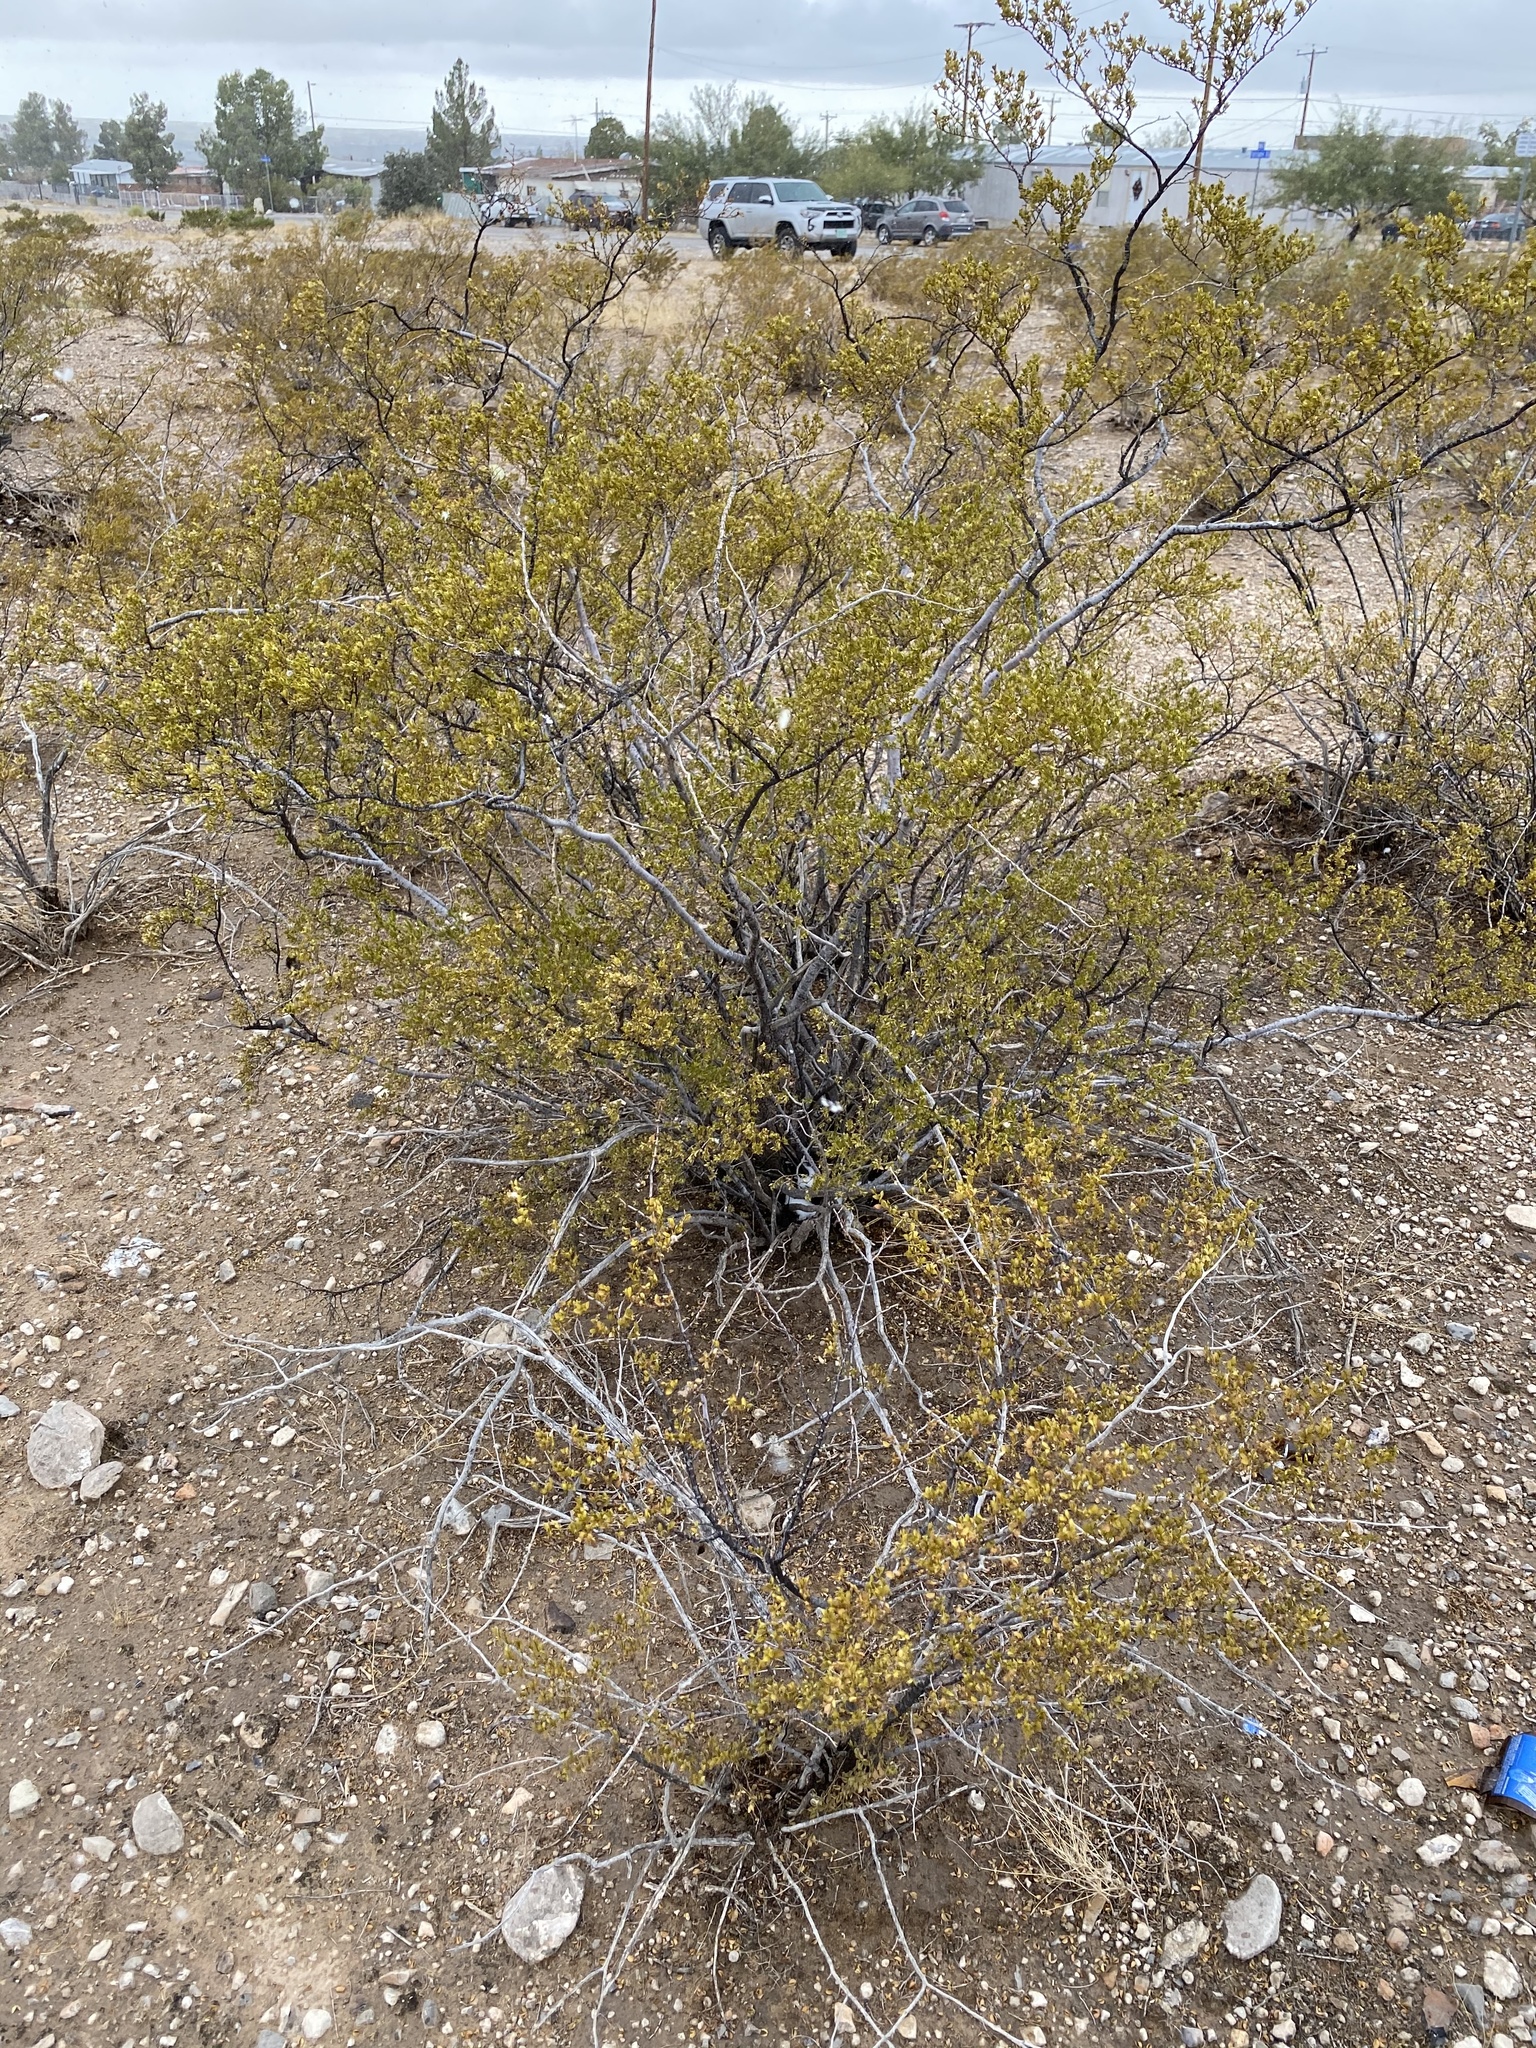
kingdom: Plantae
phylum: Tracheophyta
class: Magnoliopsida
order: Zygophyllales
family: Zygophyllaceae
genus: Larrea
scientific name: Larrea tridentata
